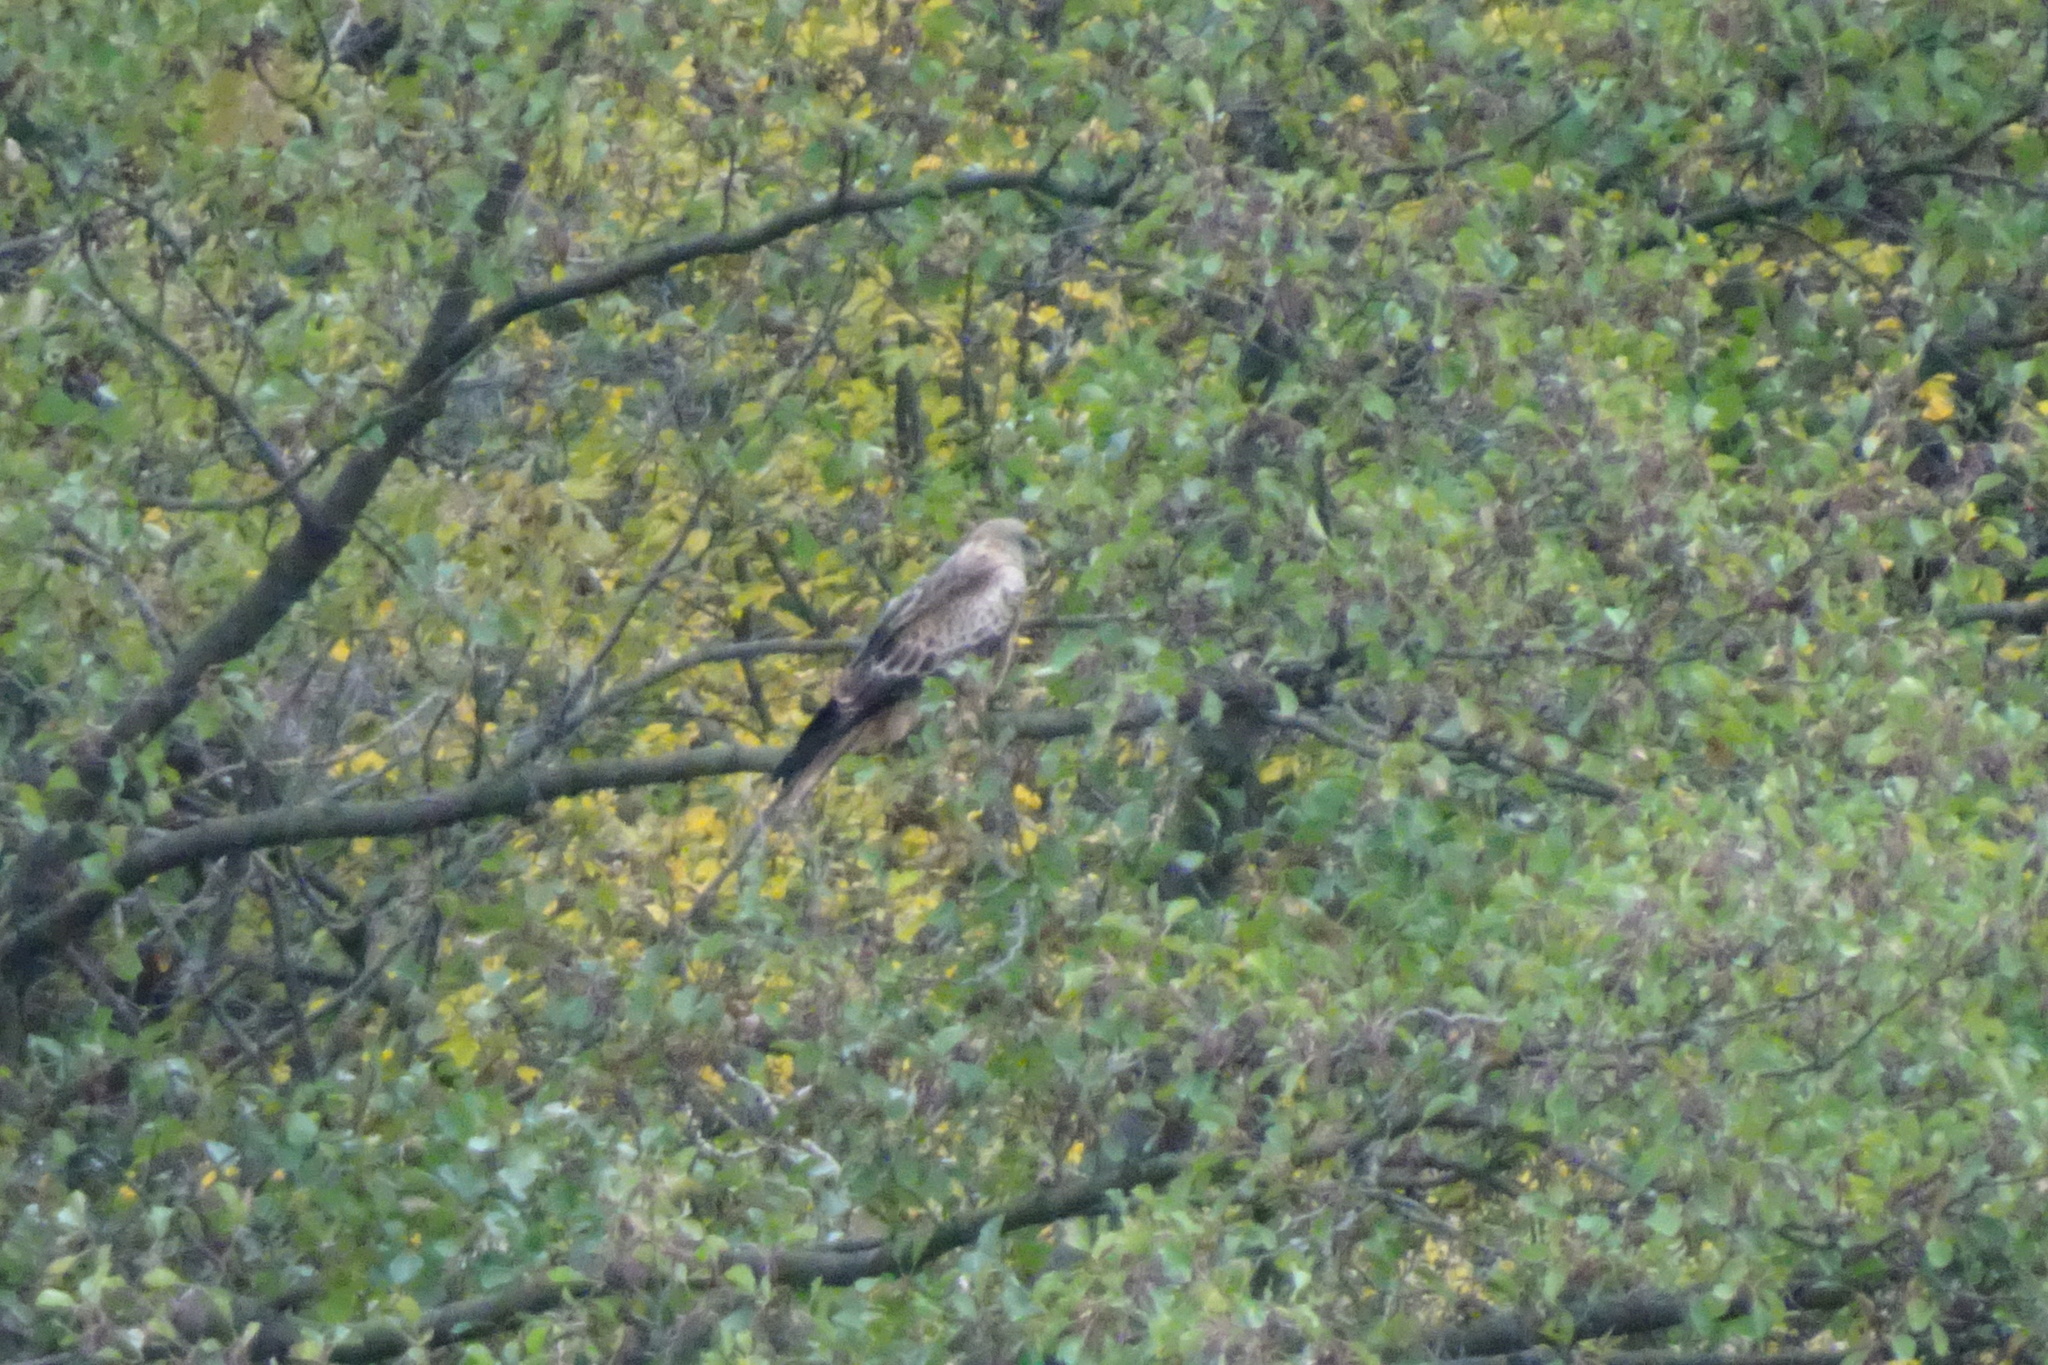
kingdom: Animalia
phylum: Chordata
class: Aves
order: Accipitriformes
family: Accipitridae
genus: Milvus
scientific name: Milvus milvus
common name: Red kite
